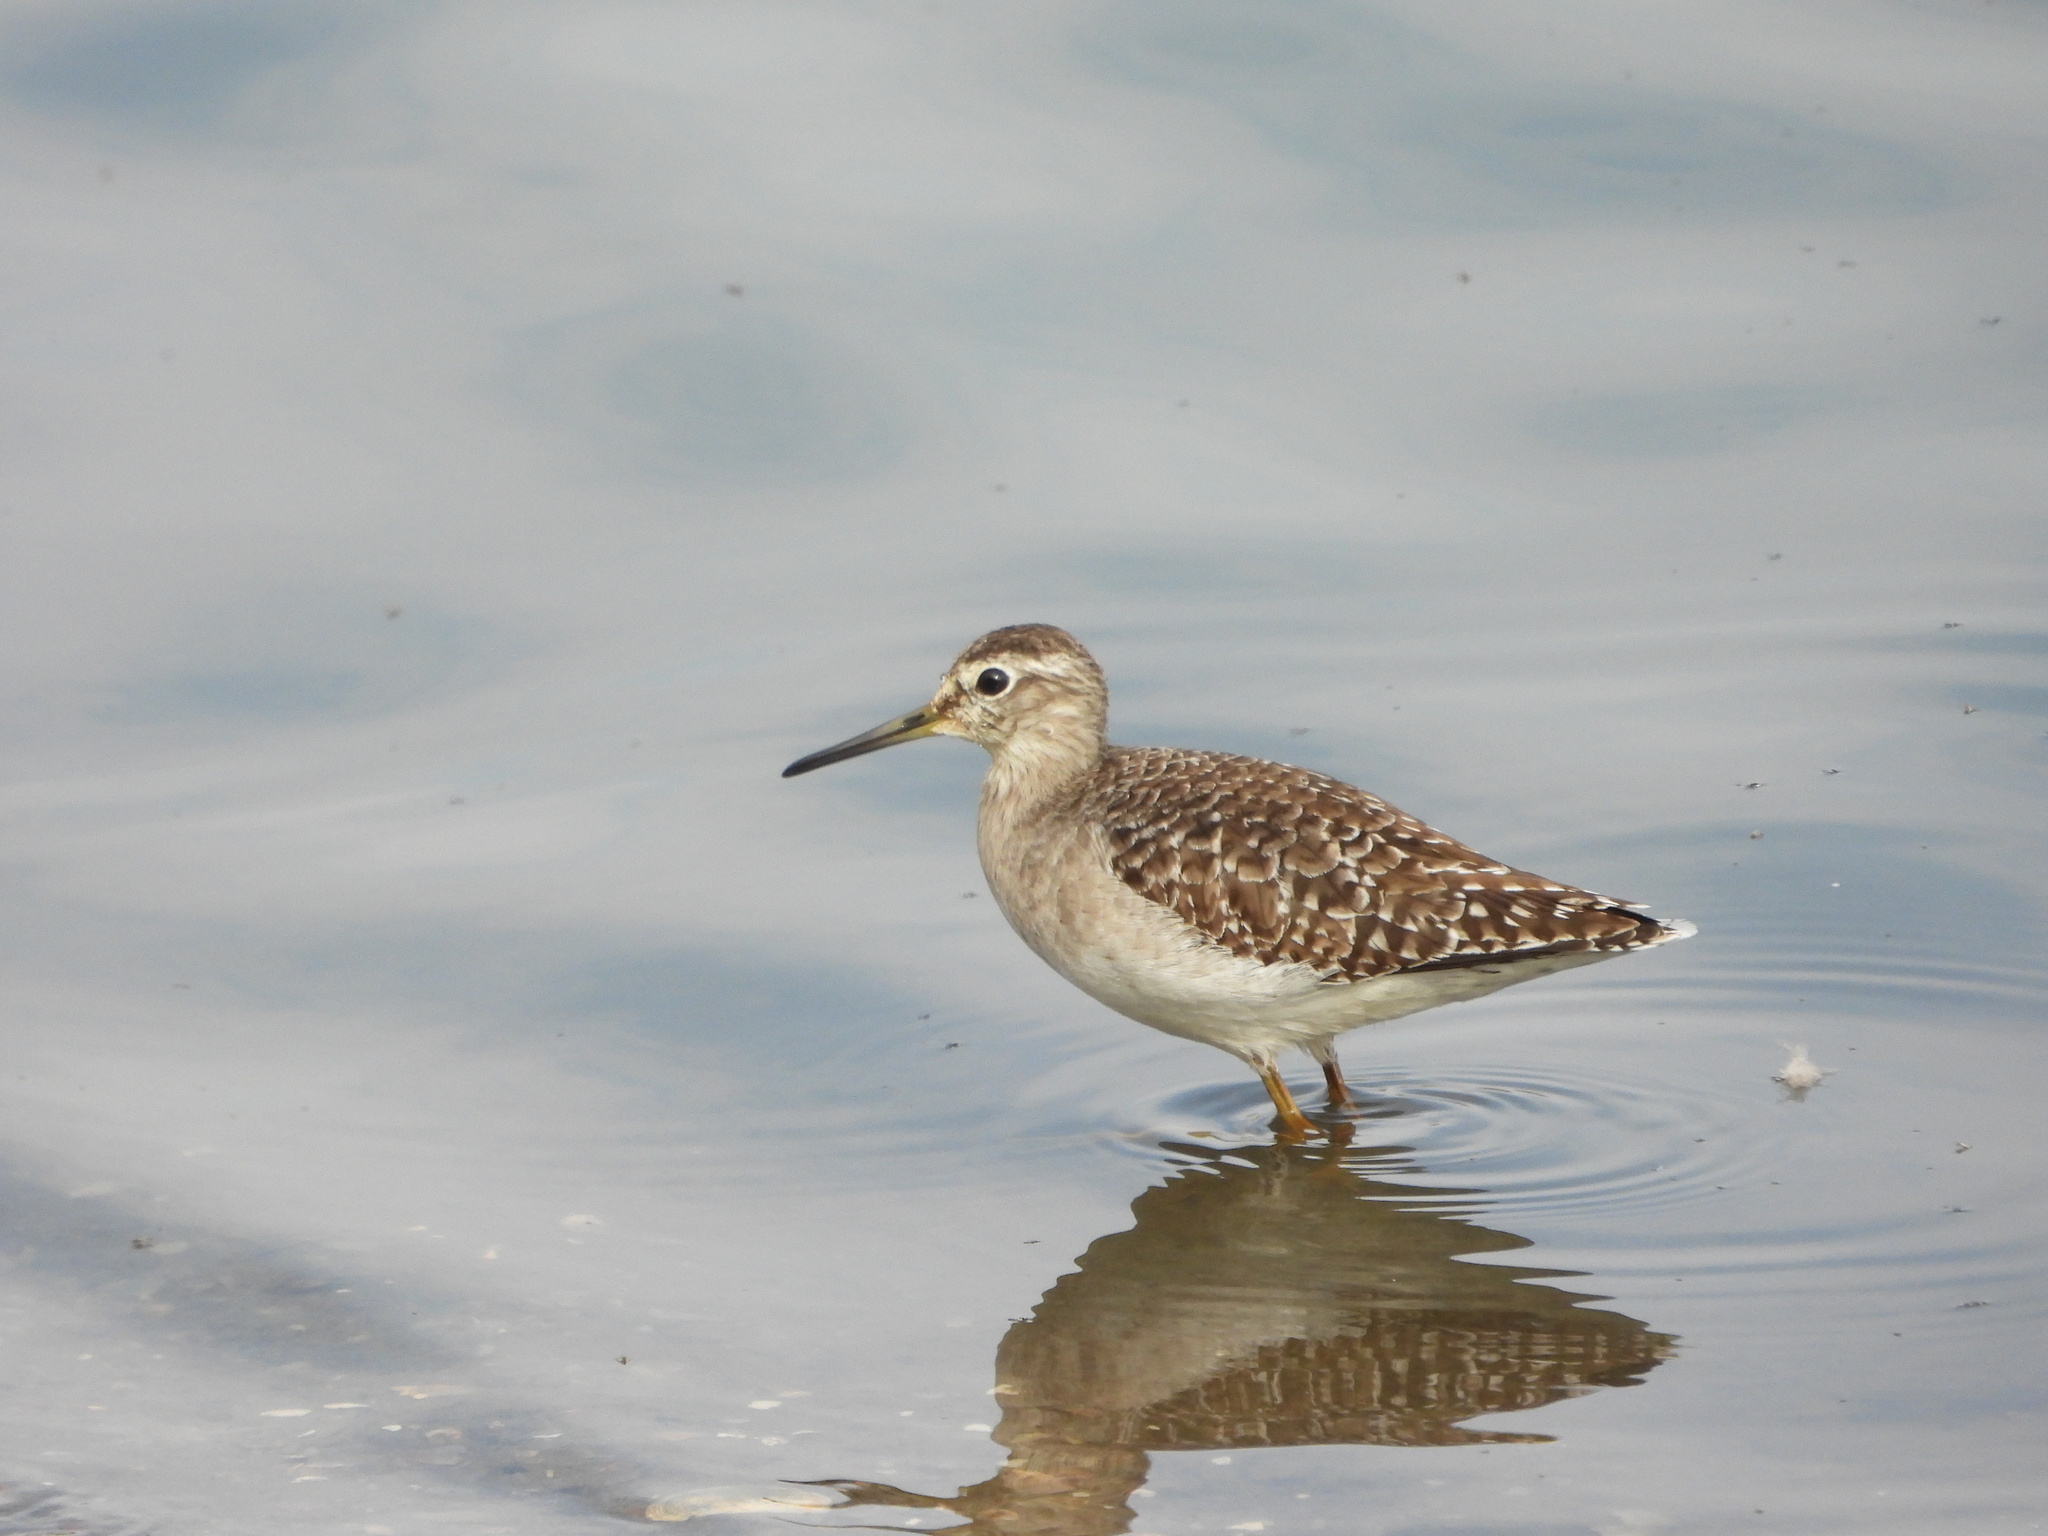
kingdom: Animalia
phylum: Chordata
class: Aves
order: Charadriiformes
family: Scolopacidae
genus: Tringa
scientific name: Tringa glareola
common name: Wood sandpiper
